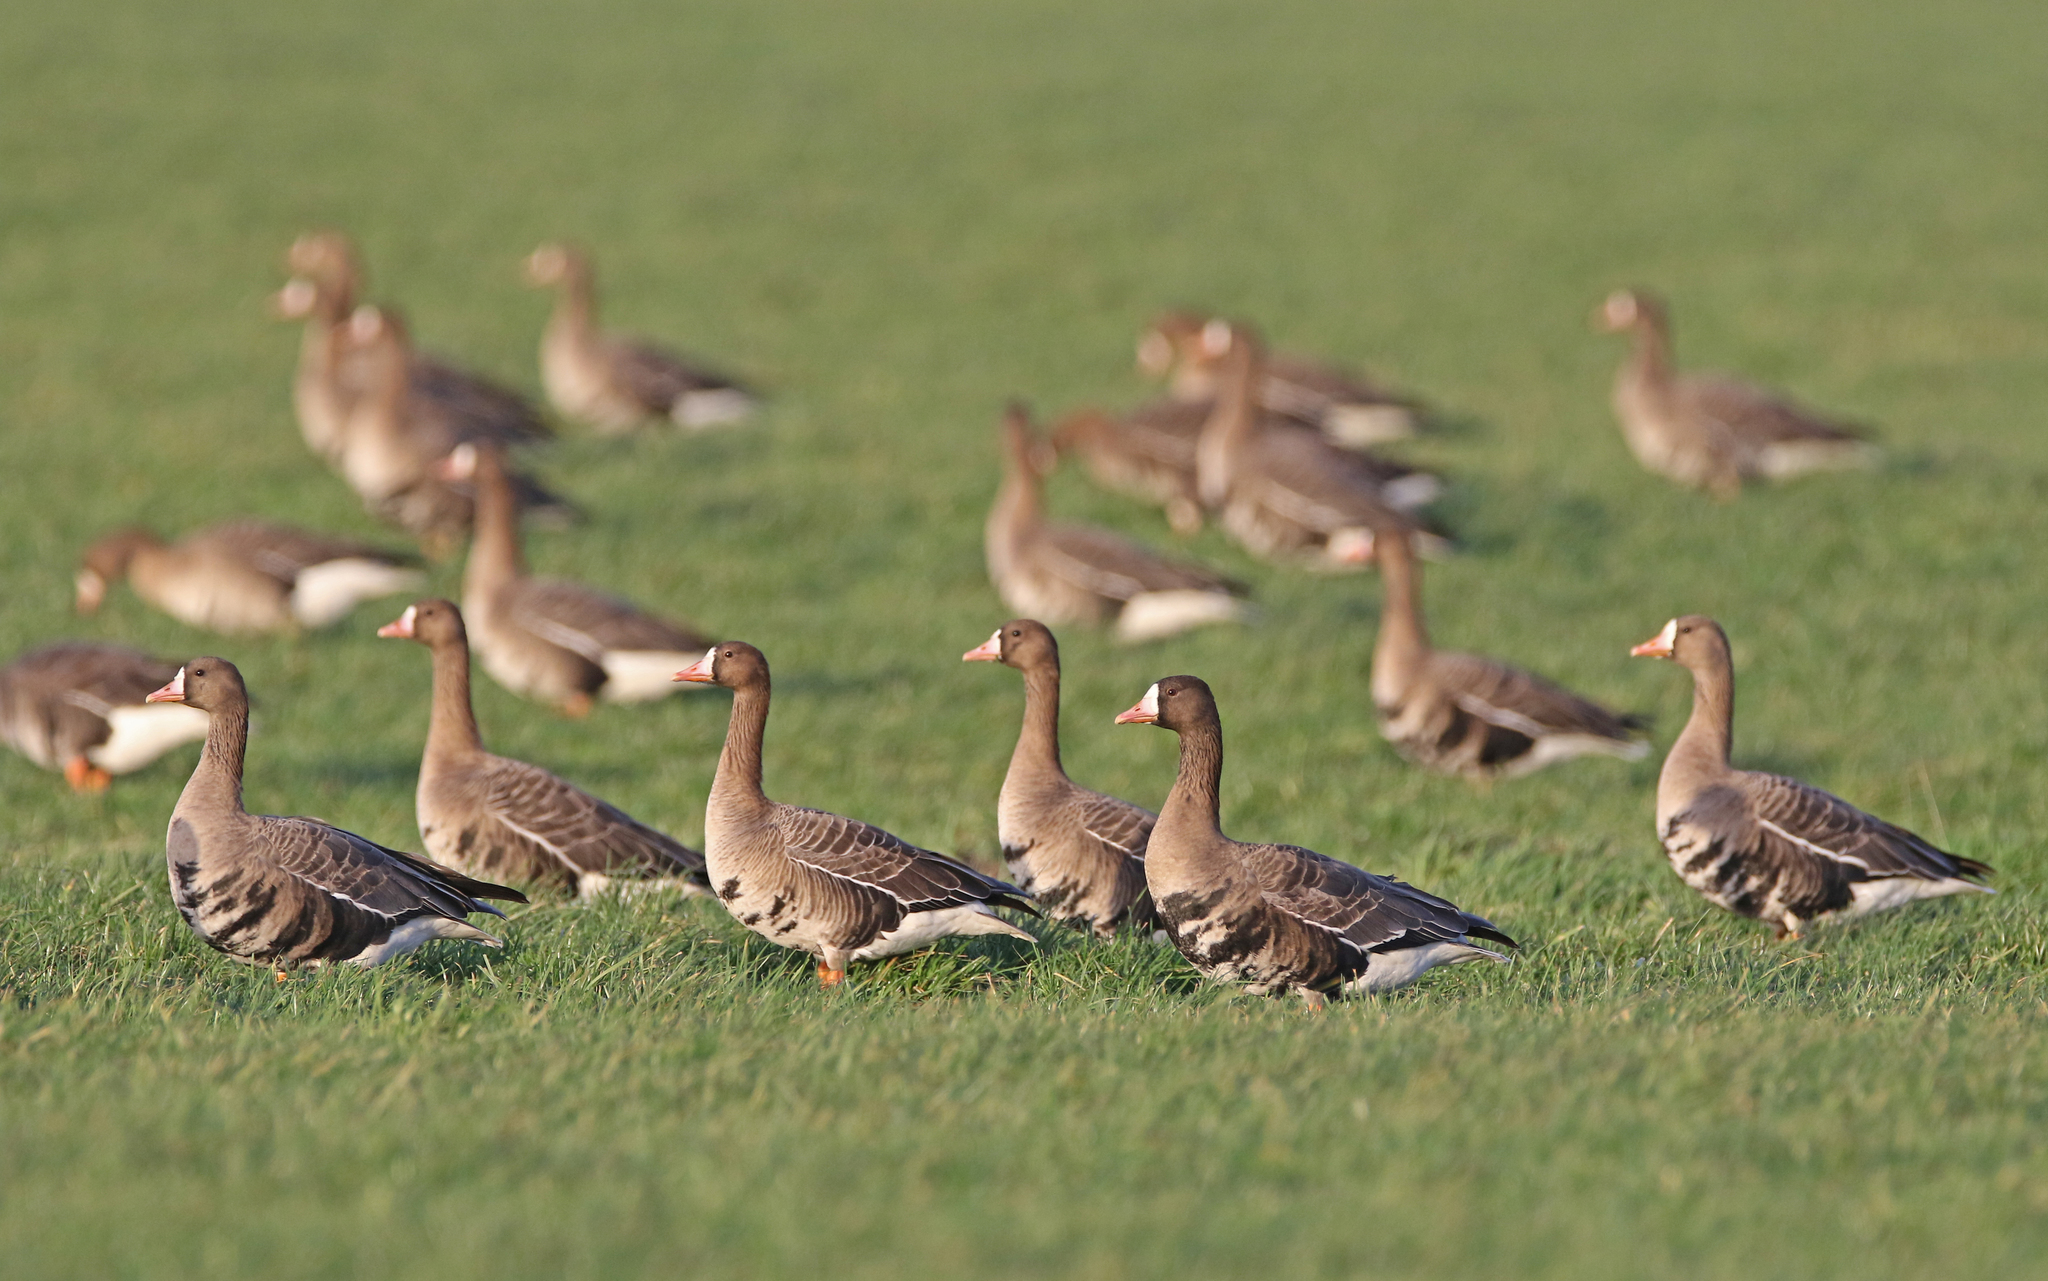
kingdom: Animalia
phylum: Chordata
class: Aves
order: Anseriformes
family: Anatidae
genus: Anser
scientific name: Anser albifrons
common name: Greater white-fronted goose
